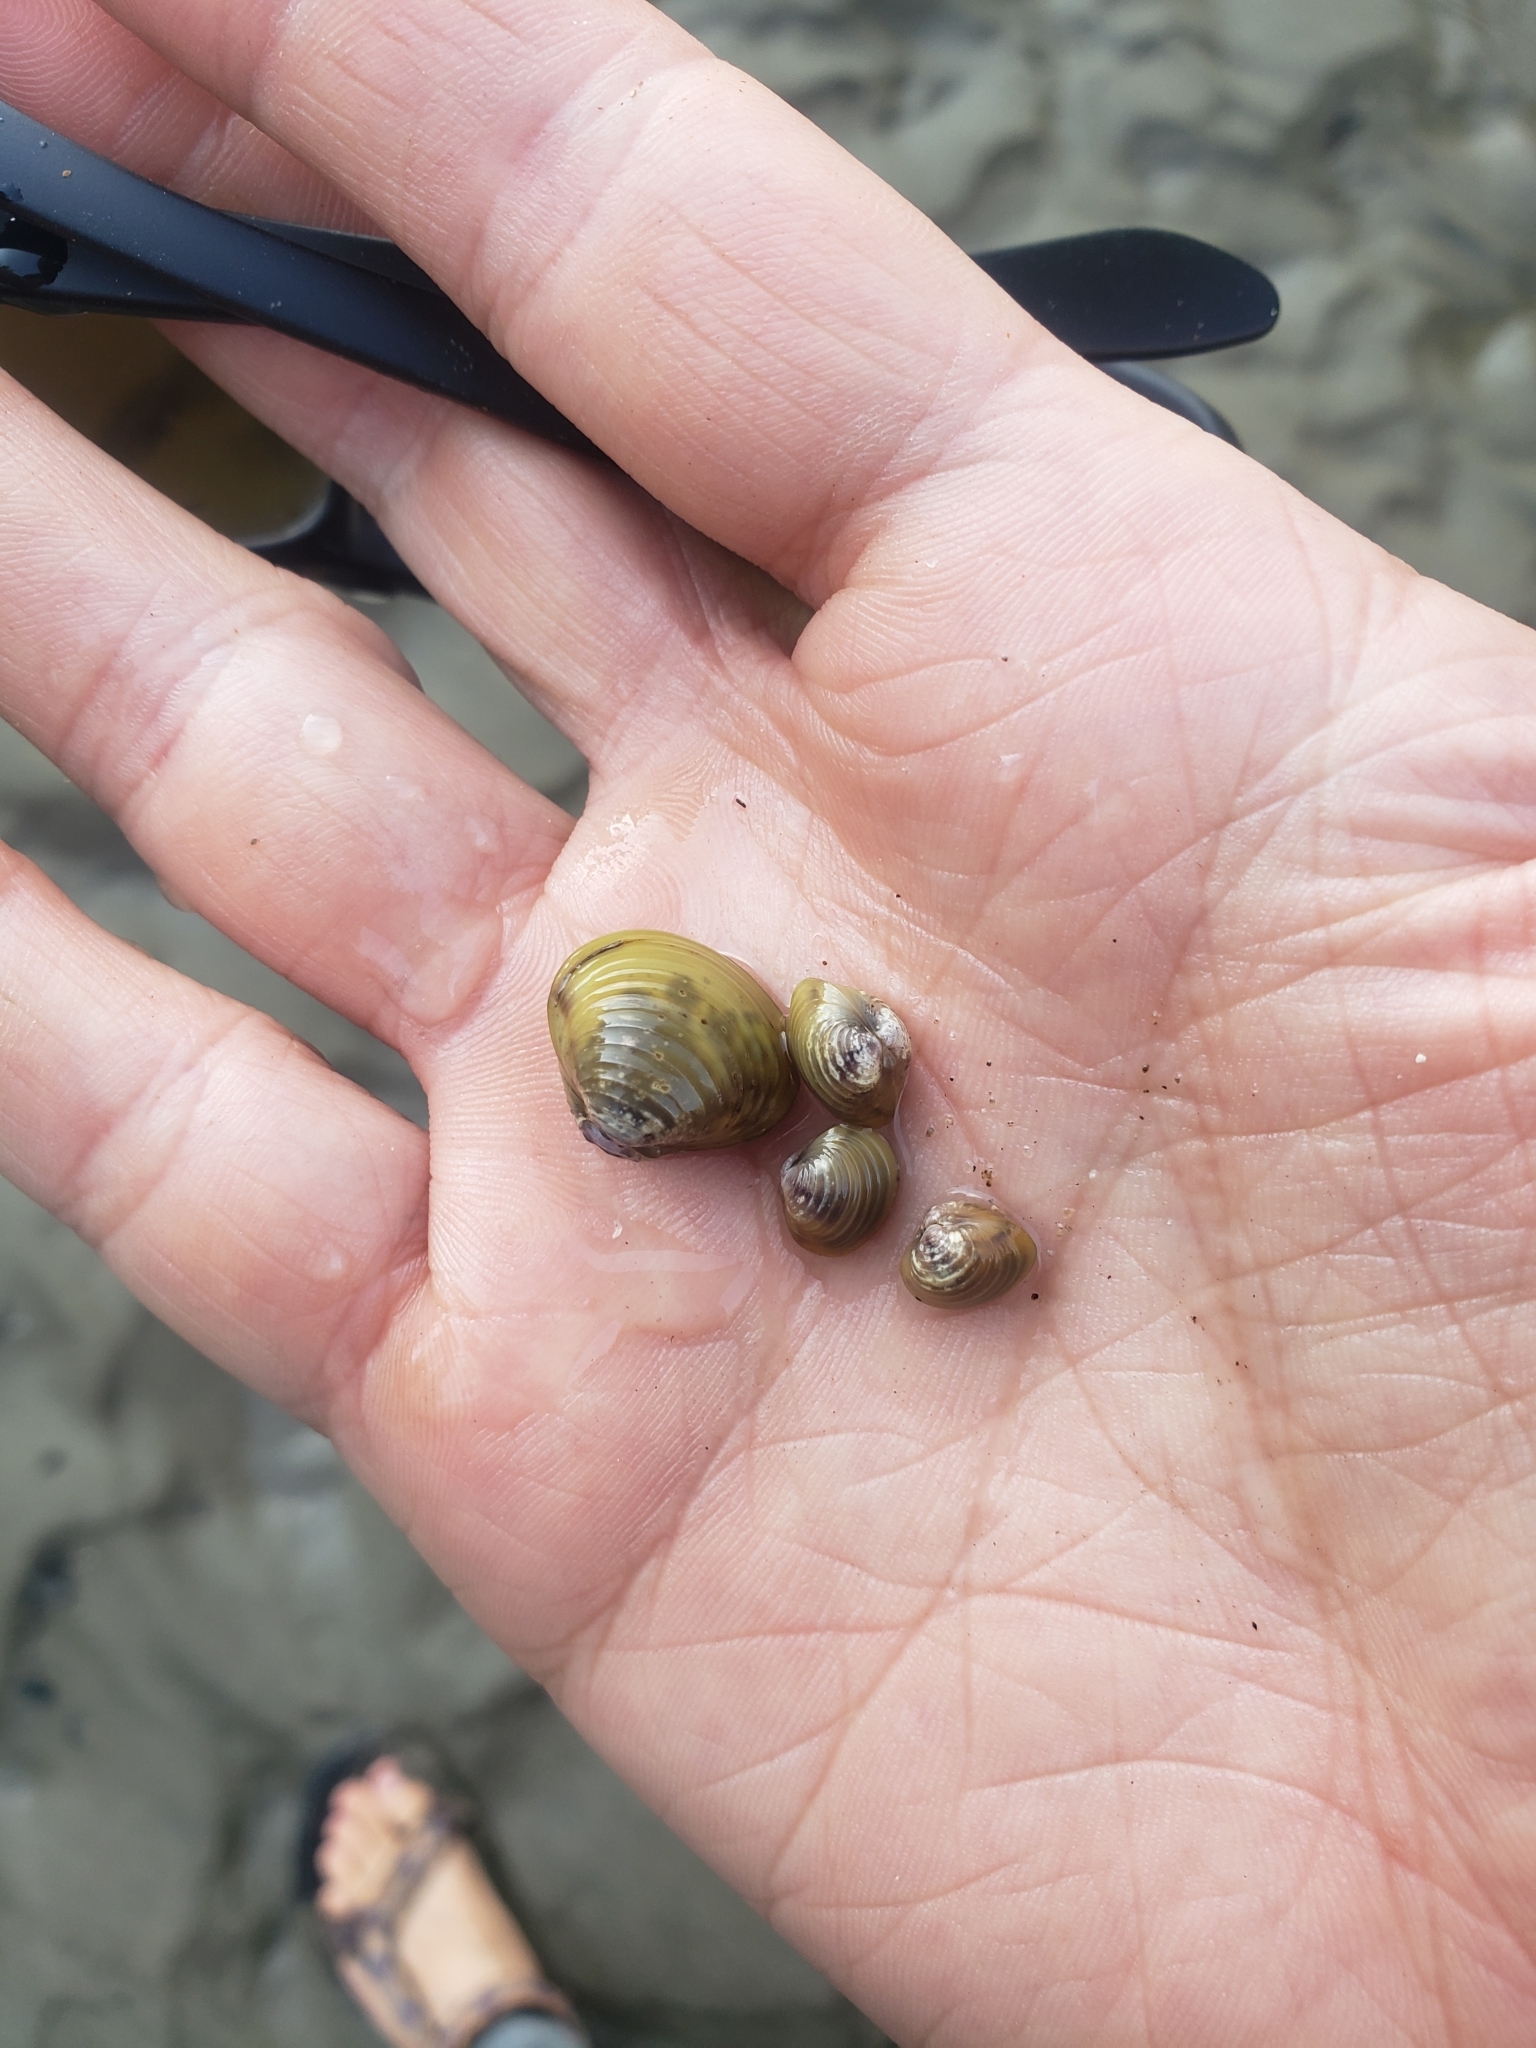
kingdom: Animalia
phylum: Mollusca
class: Bivalvia
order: Venerida
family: Cyrenidae
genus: Corbicula
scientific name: Corbicula fluminea
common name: Asian clam
